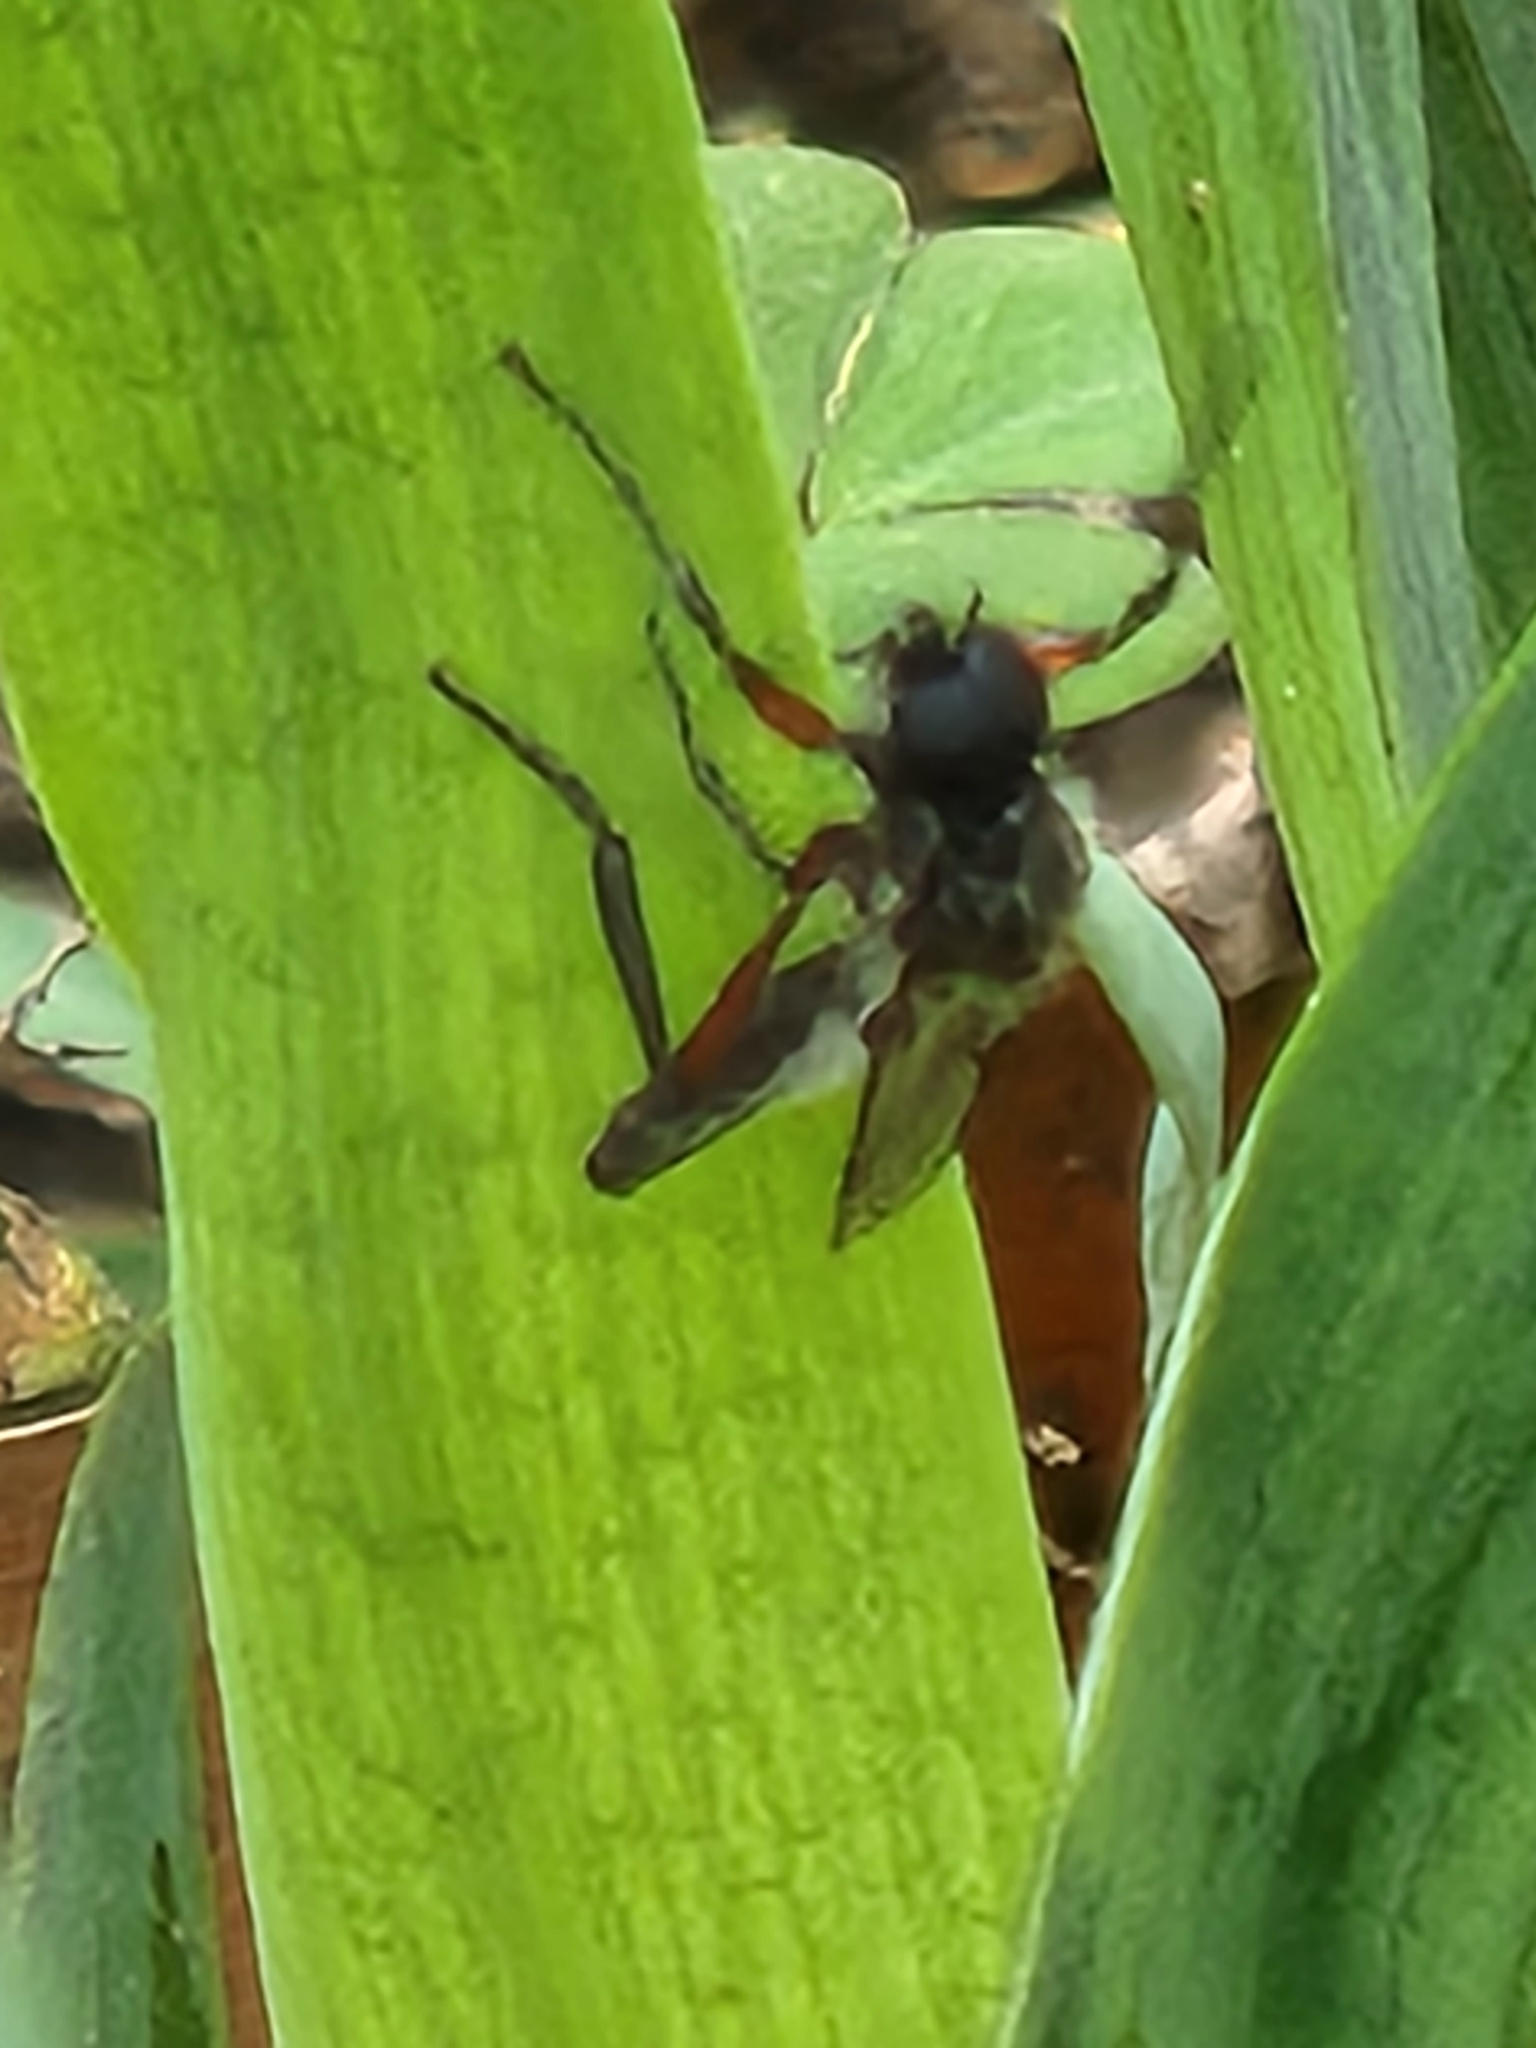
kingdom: Animalia
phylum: Arthropoda
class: Insecta
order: Diptera
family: Bibionidae
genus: Bibio
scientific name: Bibio femoratus
